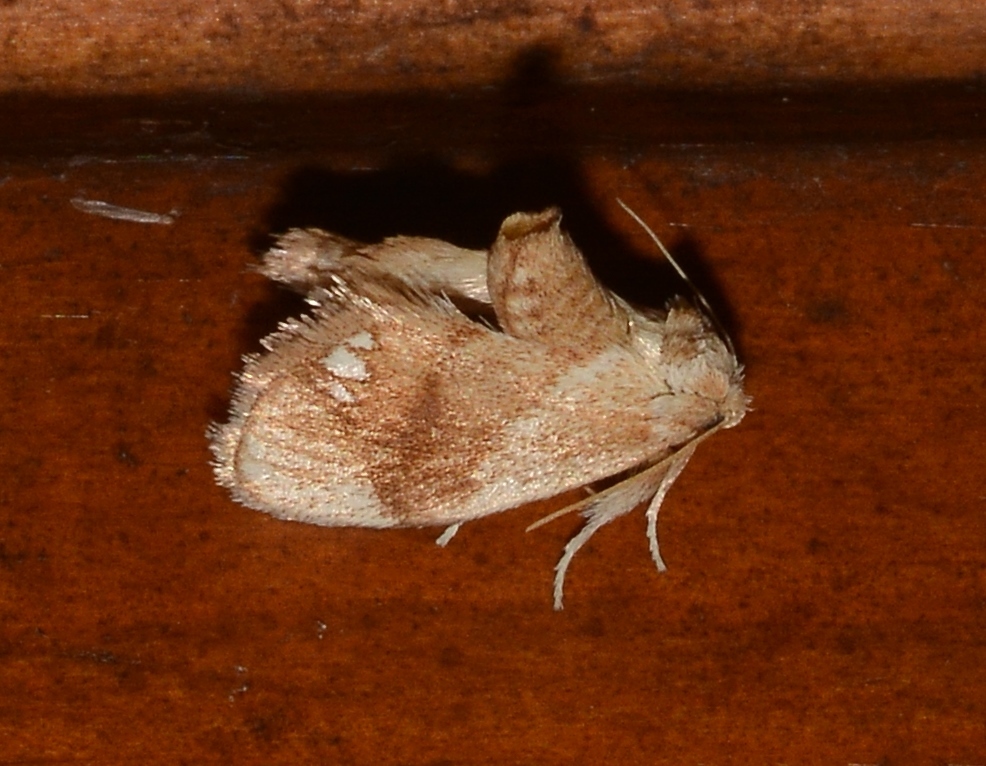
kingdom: Animalia
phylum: Arthropoda
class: Insecta
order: Lepidoptera
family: Limacodidae
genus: Packardia
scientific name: Packardia geminata
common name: Jeweled tailed slug moth
